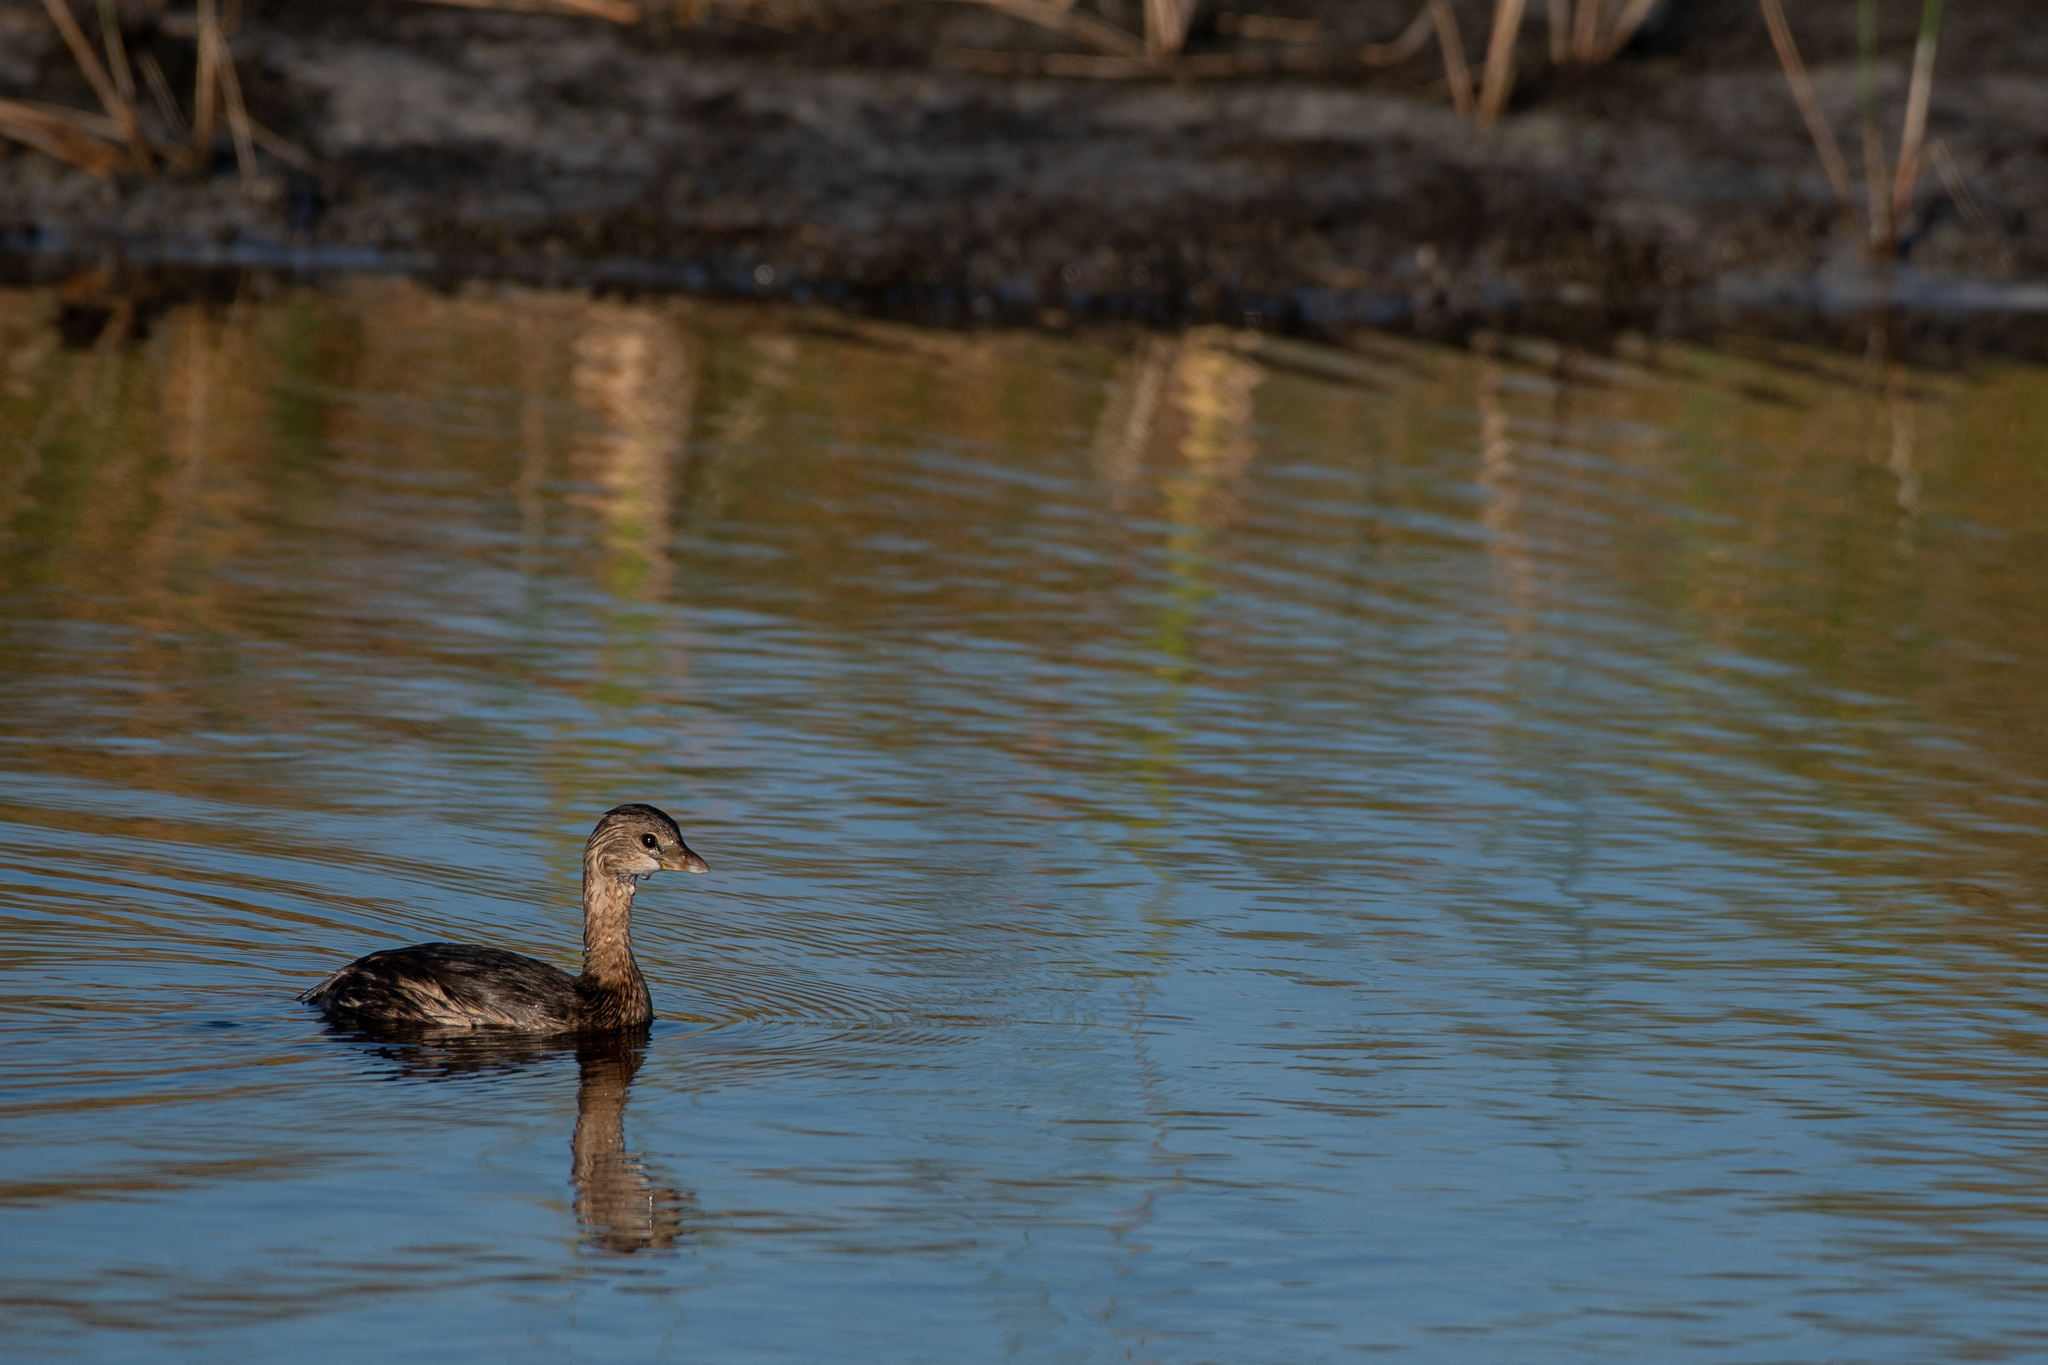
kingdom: Animalia
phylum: Chordata
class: Aves
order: Podicipediformes
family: Podicipedidae
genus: Podilymbus
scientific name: Podilymbus podiceps
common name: Pied-billed grebe
